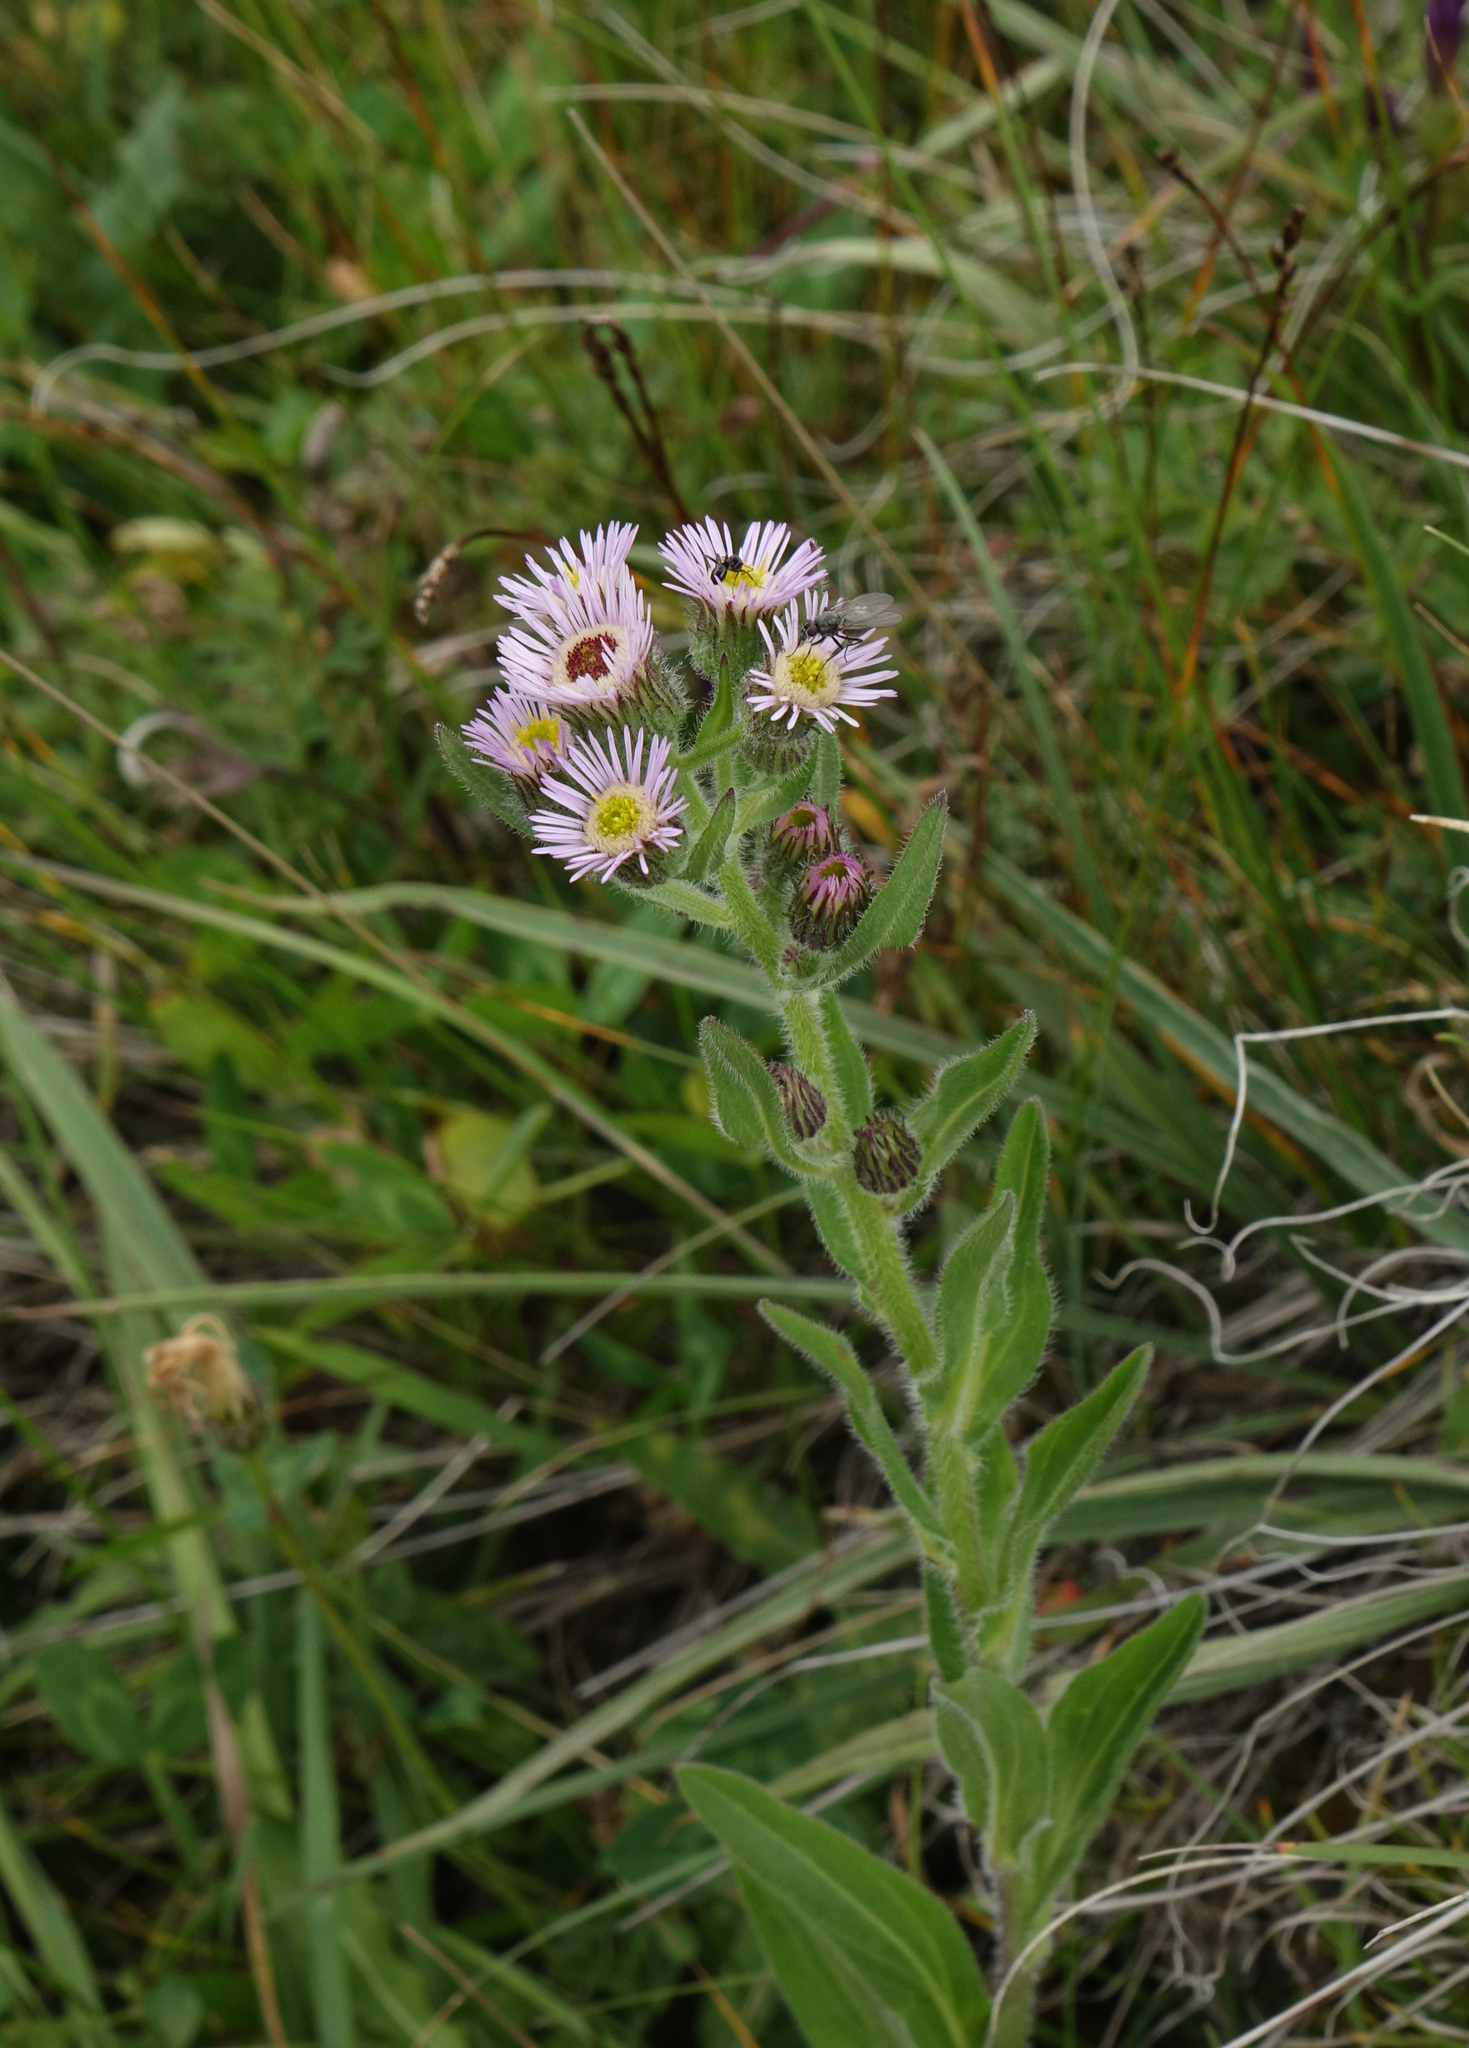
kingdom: Plantae
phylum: Tracheophyta
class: Magnoliopsida
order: Asterales
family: Asteraceae
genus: Erigeron
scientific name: Erigeron acris
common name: Blue fleabane
